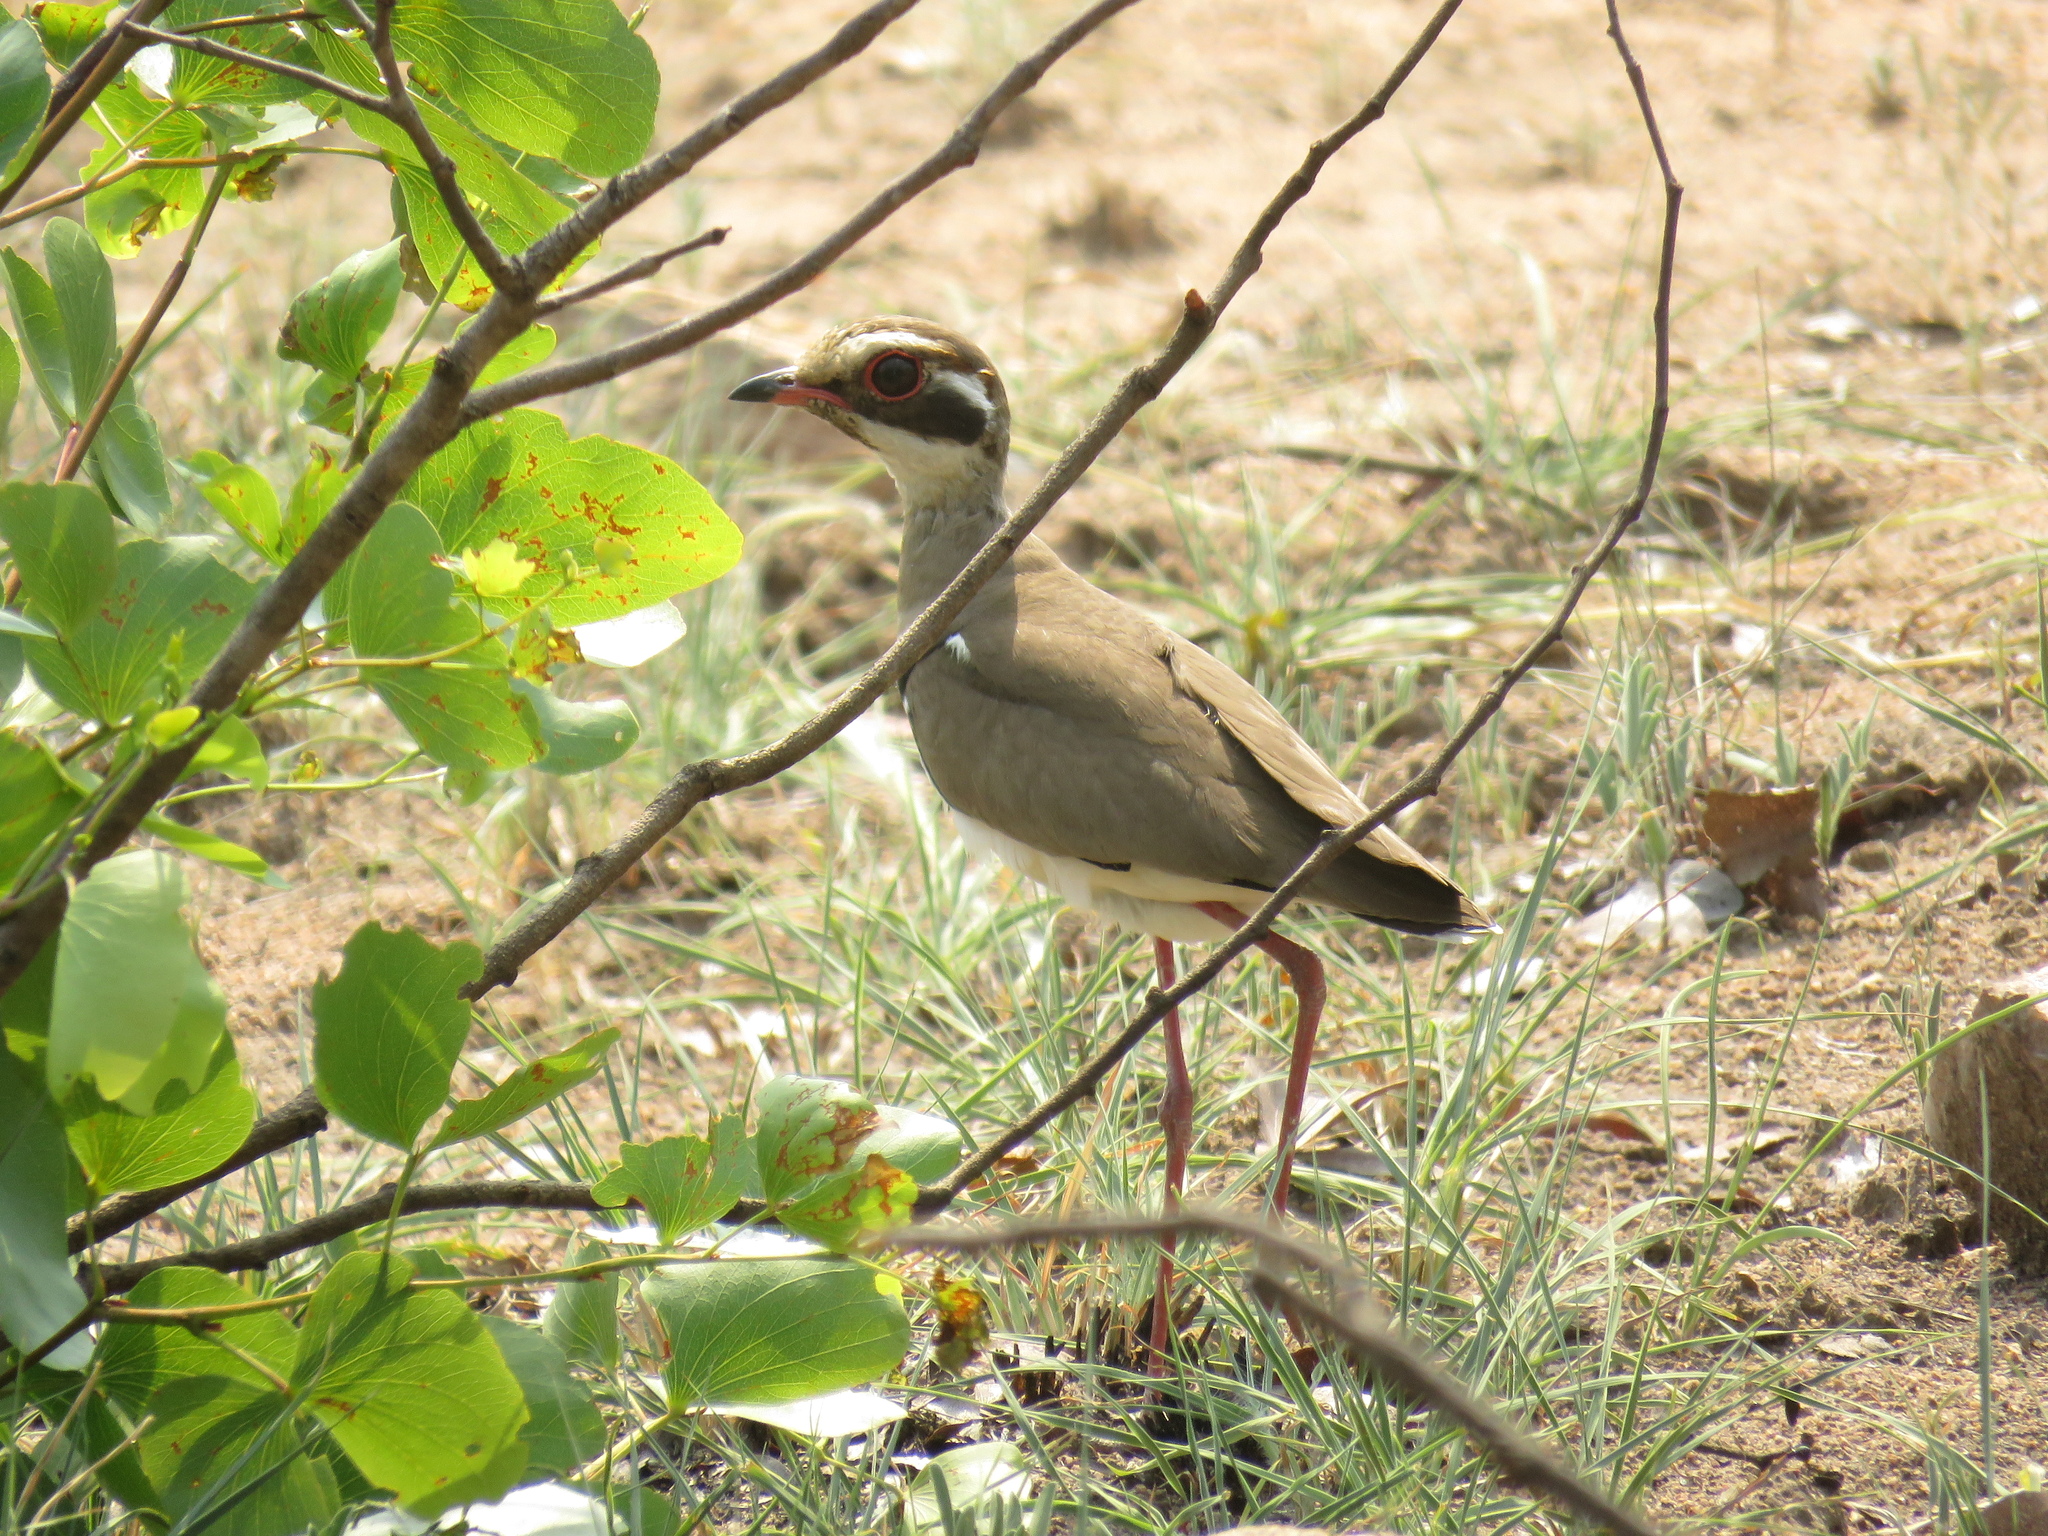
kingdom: Animalia
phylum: Chordata
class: Aves
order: Charadriiformes
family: Glareolidae
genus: Rhinoptilus
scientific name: Rhinoptilus chalcopterus
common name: Bronze-winged courser
